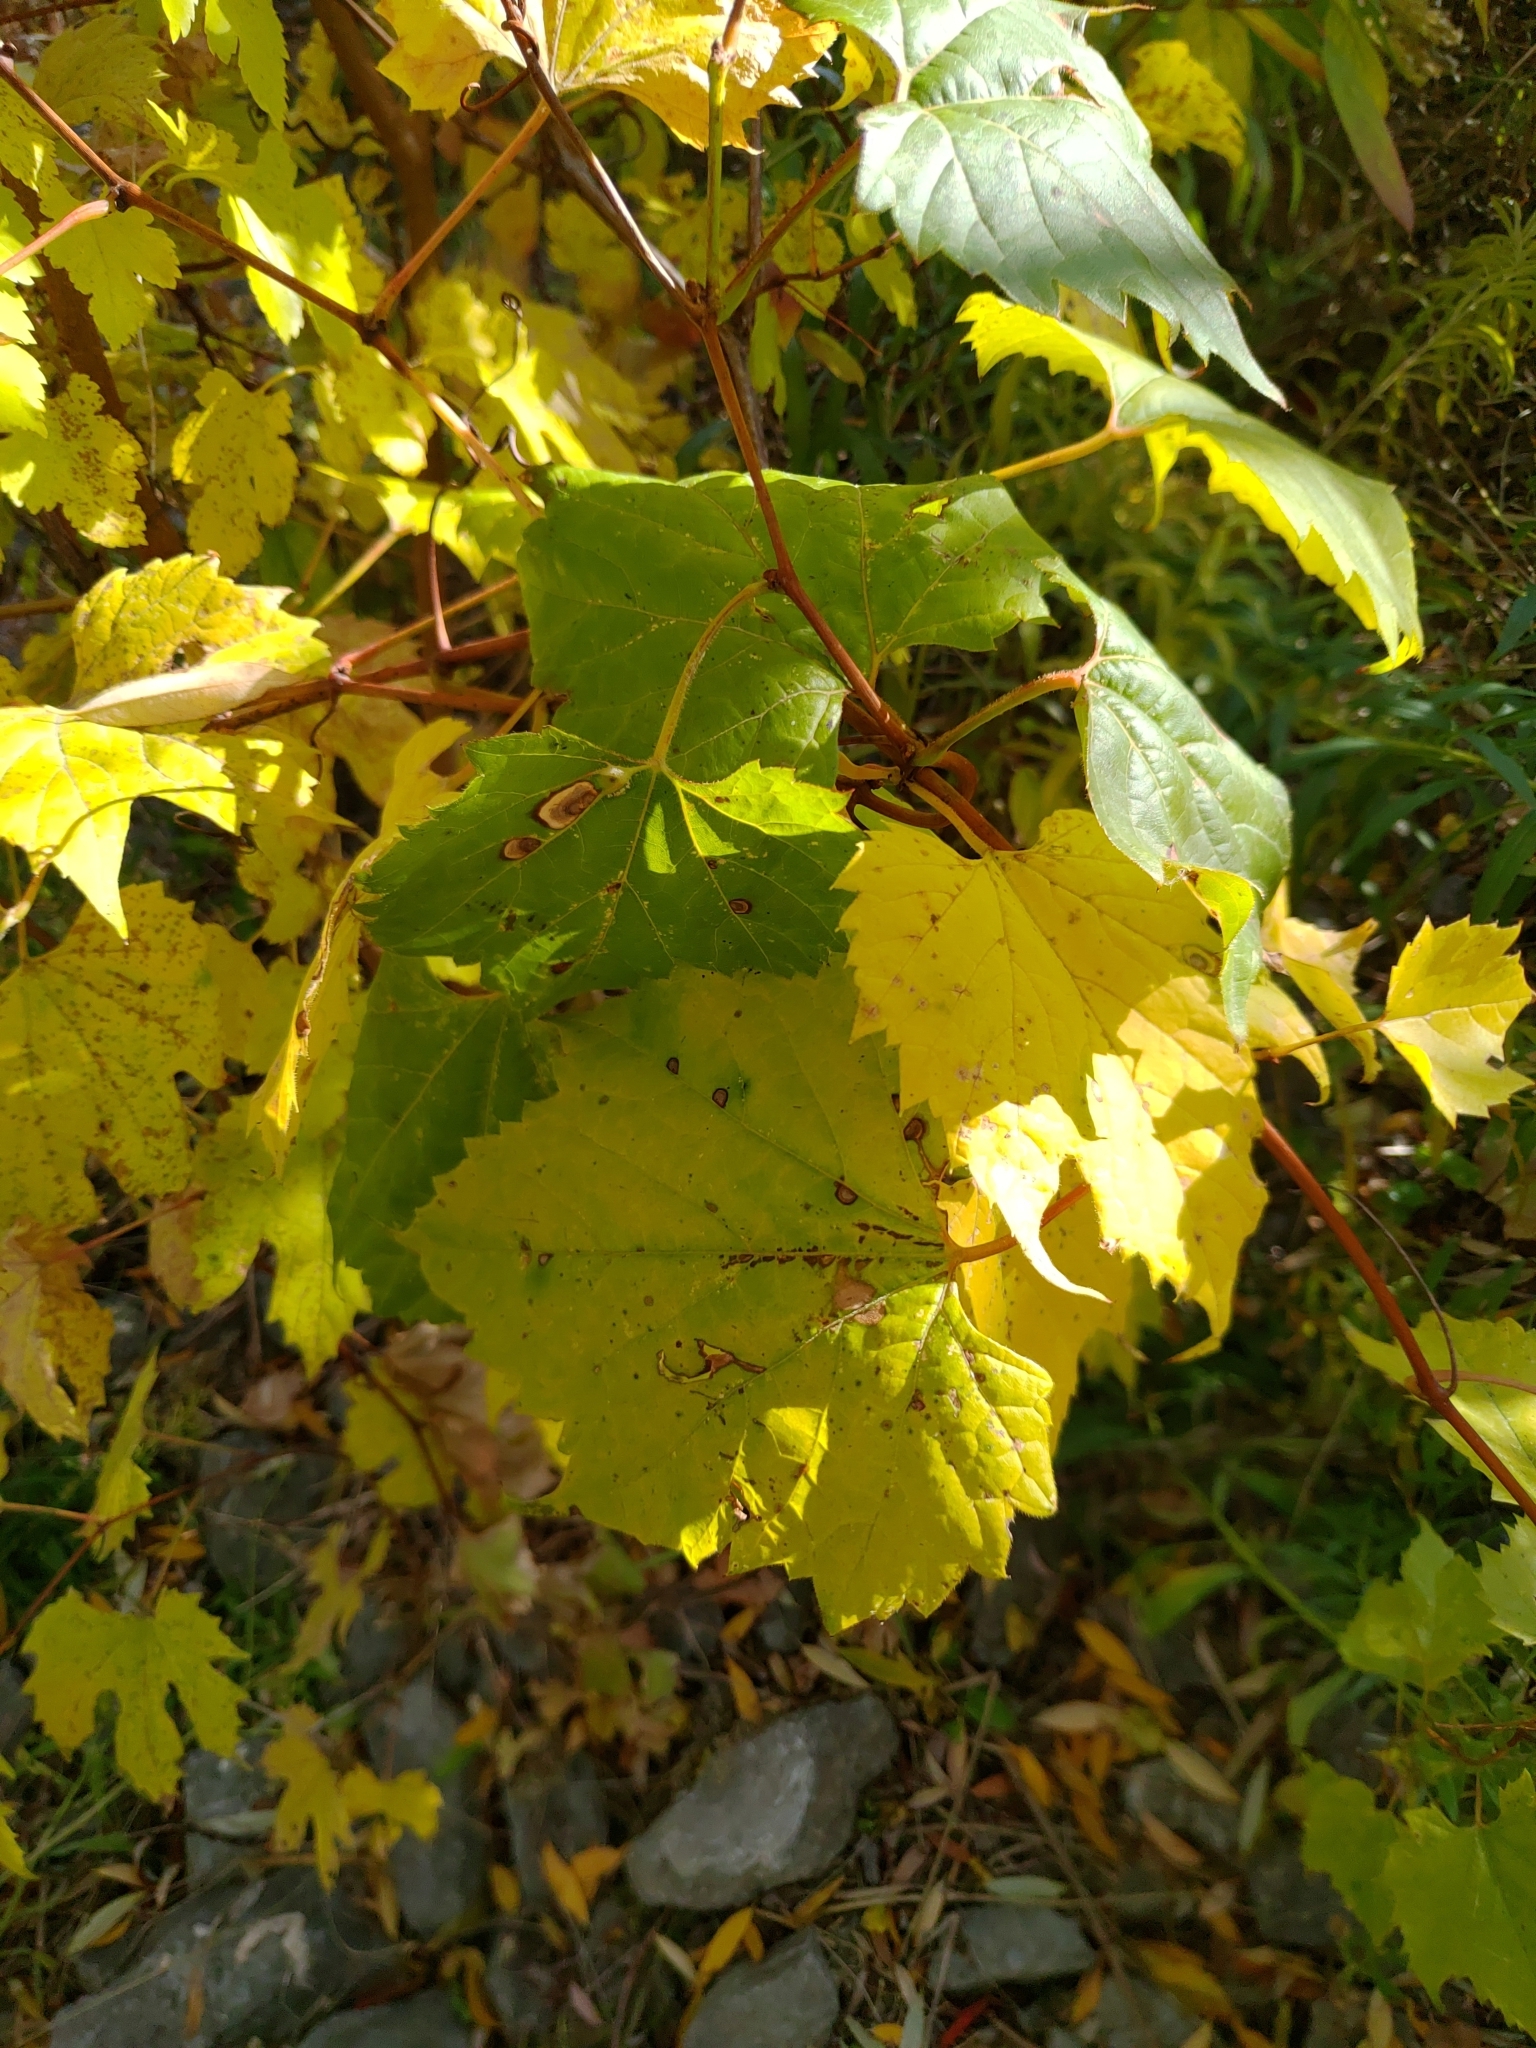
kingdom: Plantae
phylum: Tracheophyta
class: Magnoliopsida
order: Vitales
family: Vitaceae
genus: Vitis
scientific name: Vitis riparia
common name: Frost grape
